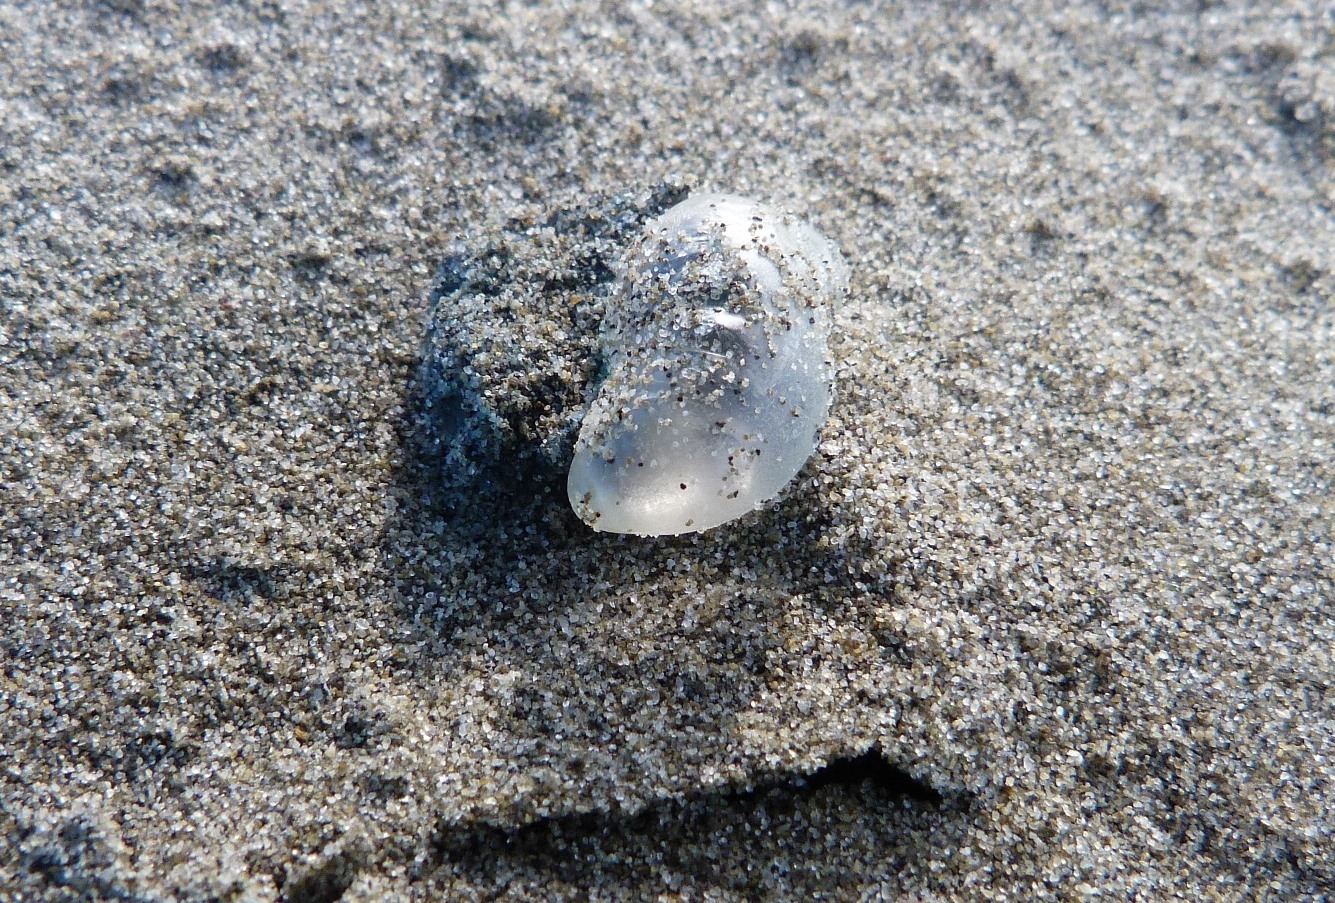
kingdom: Animalia
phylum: Cnidaria
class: Hydrozoa
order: Siphonophorae
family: Physaliidae
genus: Physalia
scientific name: Physalia physalis
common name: Portuguese man-of-war
